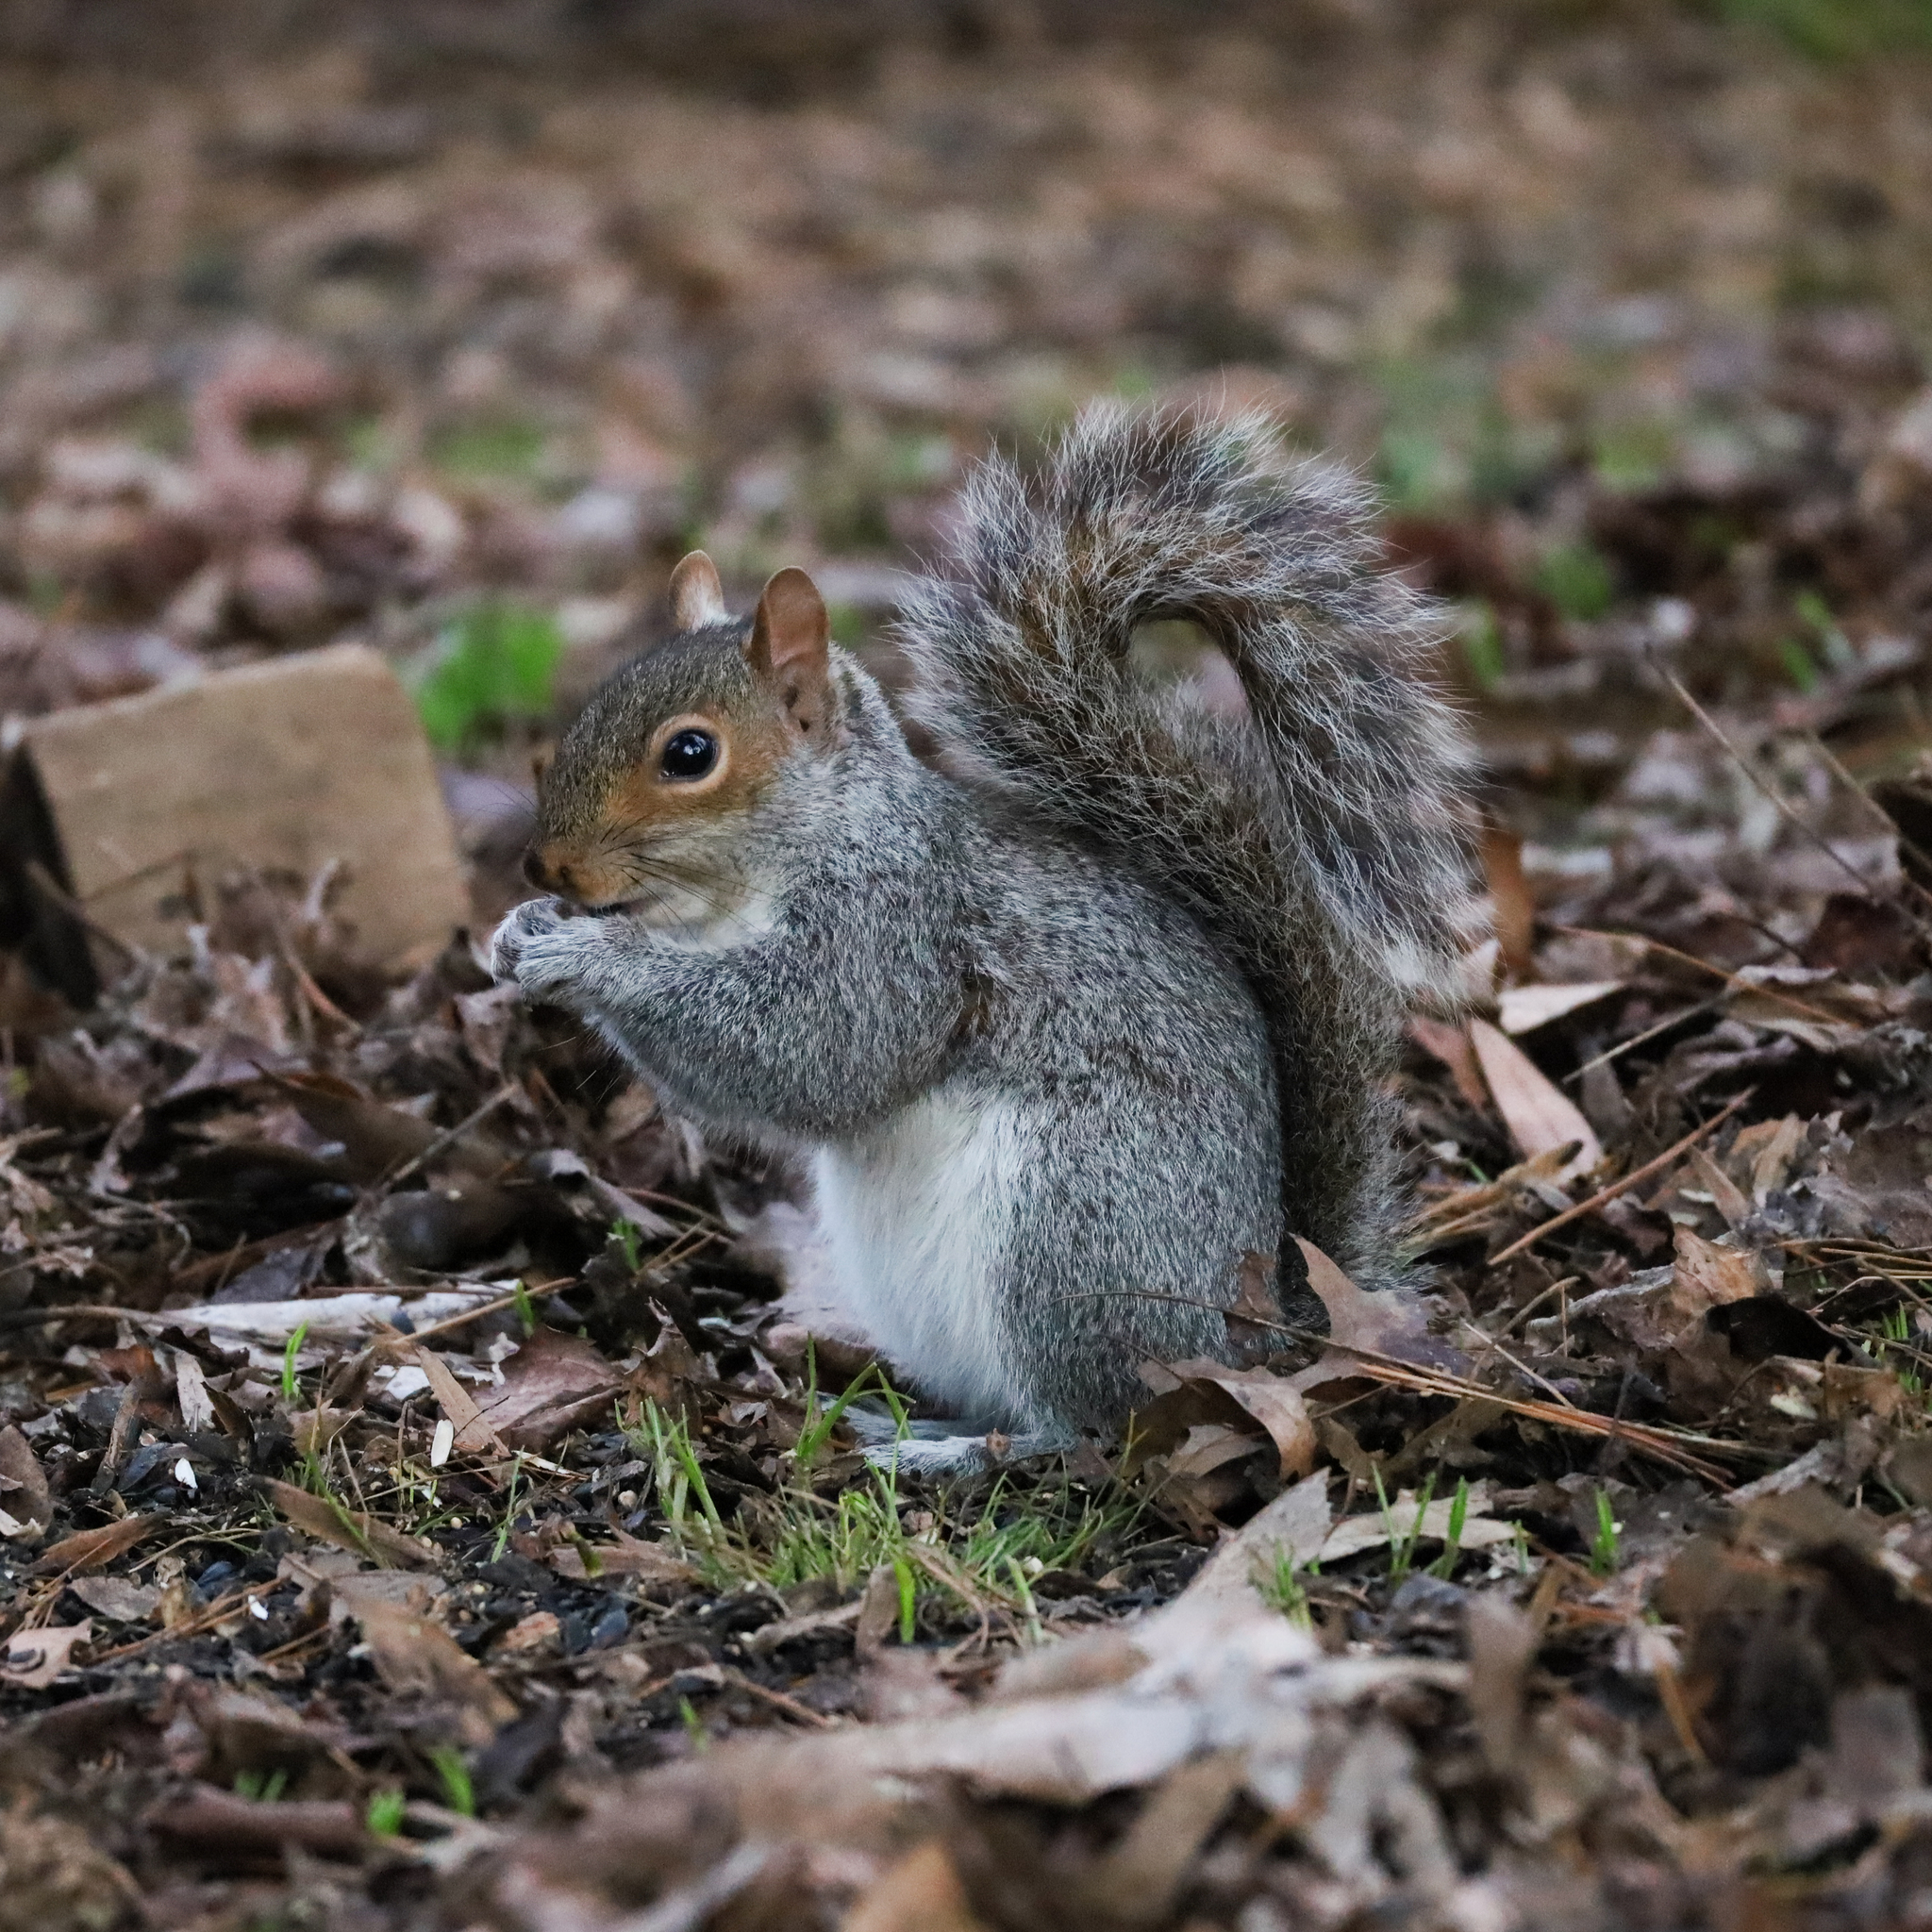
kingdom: Animalia
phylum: Chordata
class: Mammalia
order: Rodentia
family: Sciuridae
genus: Sciurus
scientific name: Sciurus carolinensis
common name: Eastern gray squirrel
